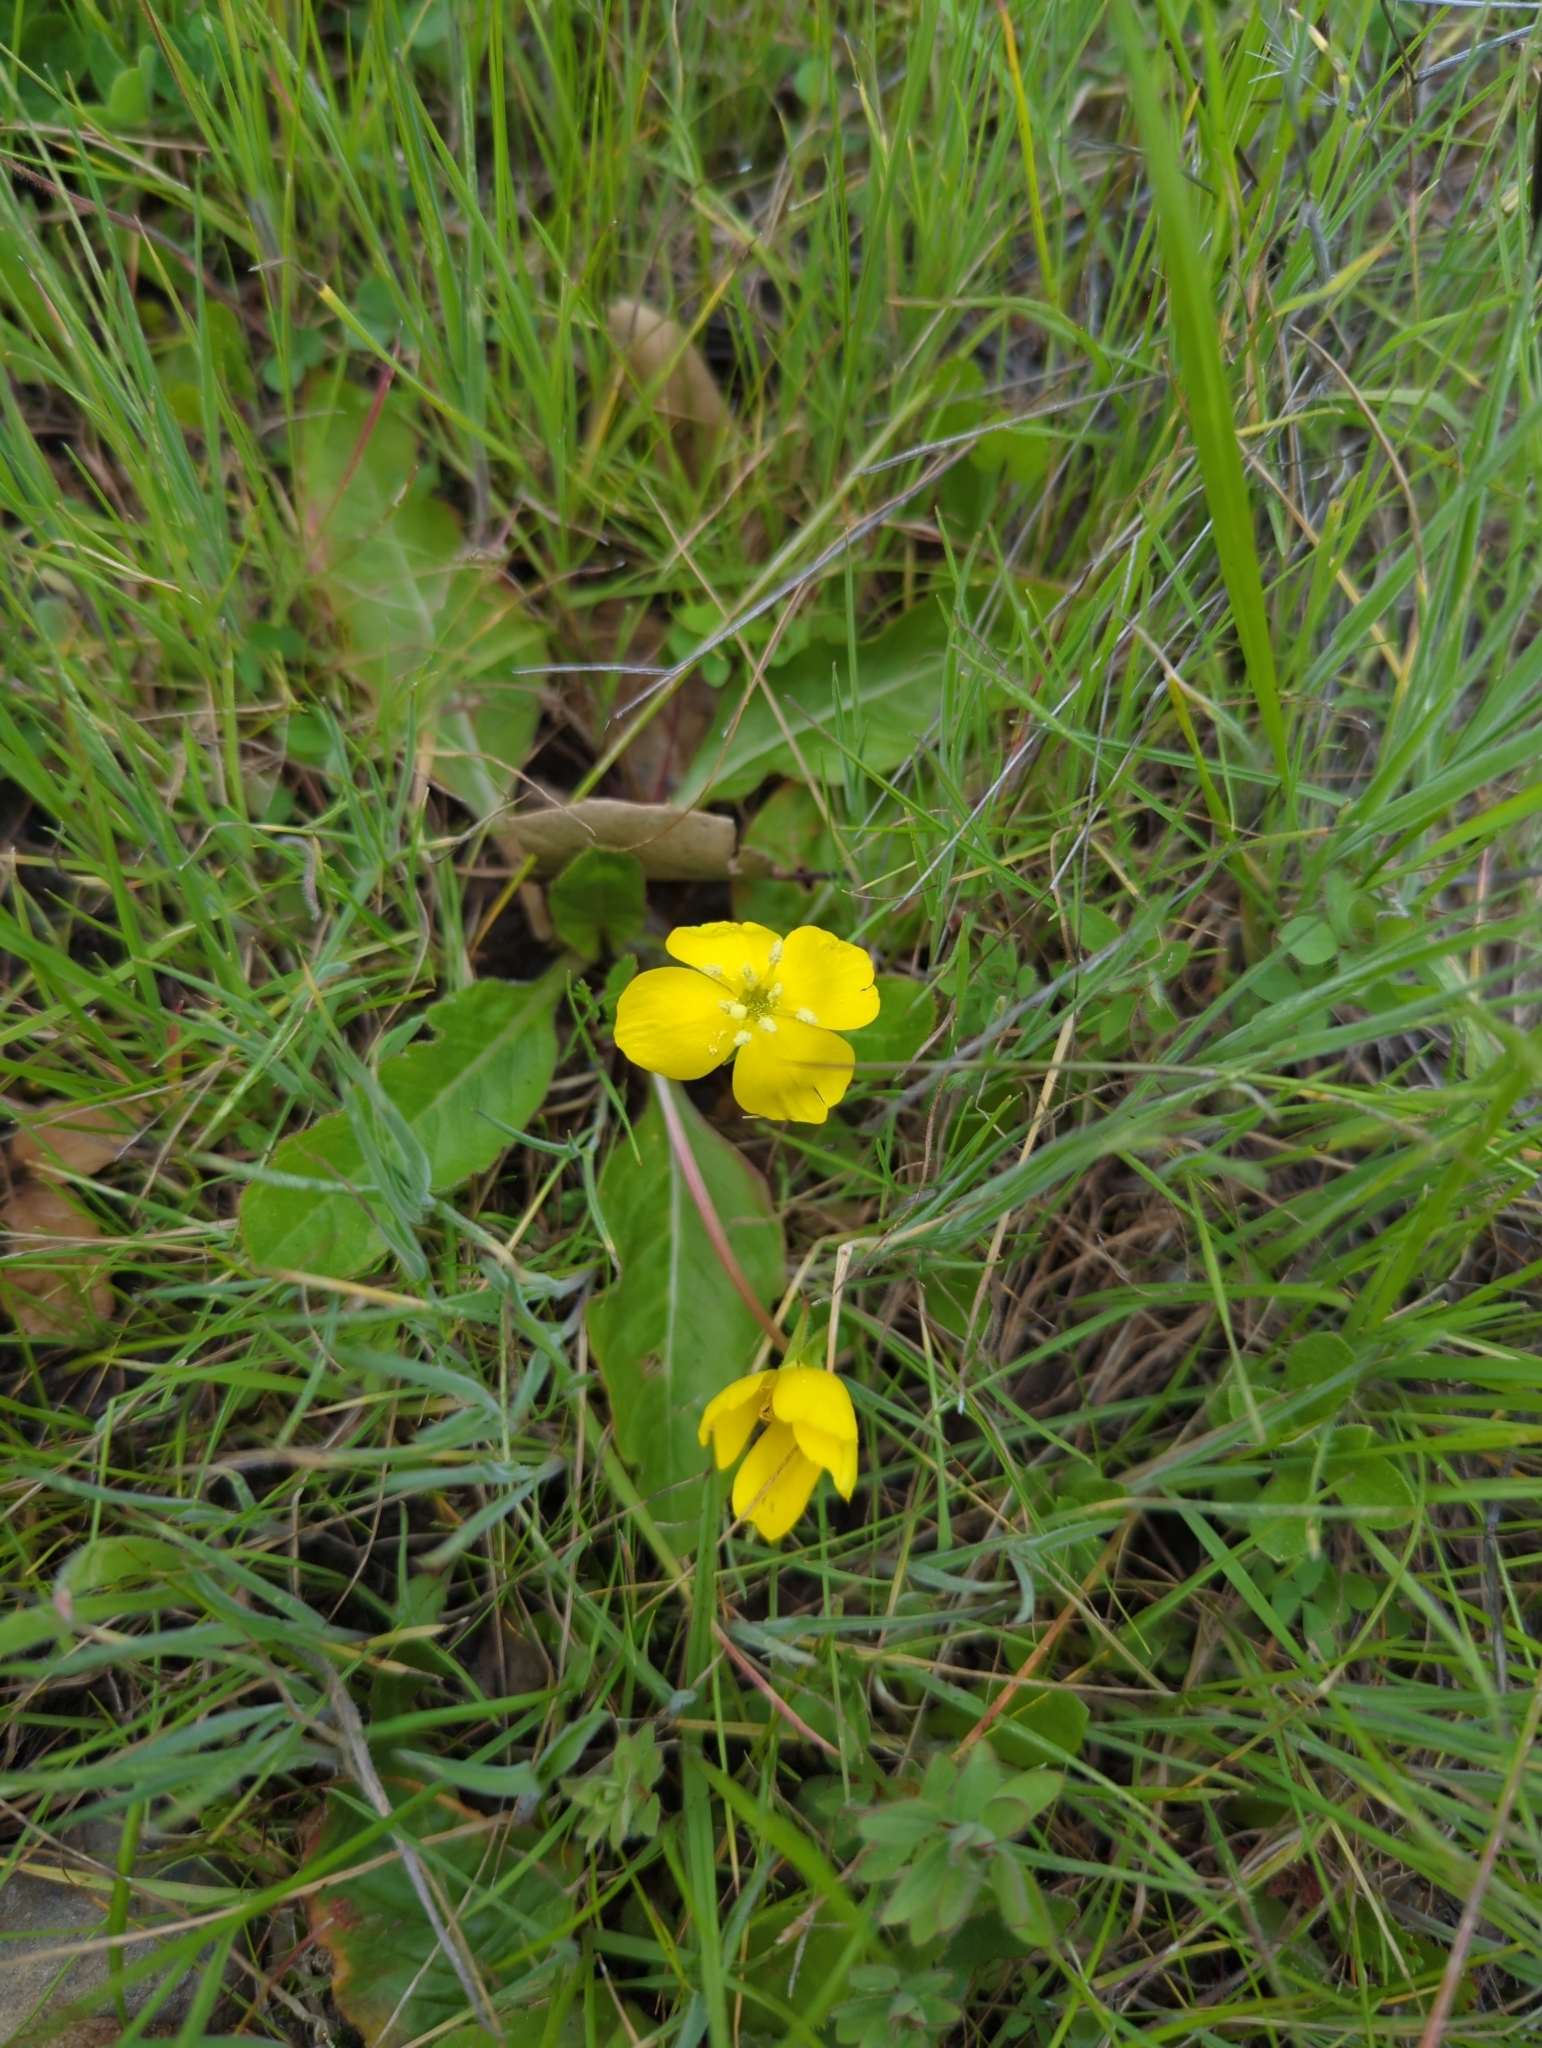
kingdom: Plantae
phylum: Tracheophyta
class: Magnoliopsida
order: Myrtales
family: Onagraceae
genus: Taraxia
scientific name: Taraxia ovata
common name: Goldeneggs
